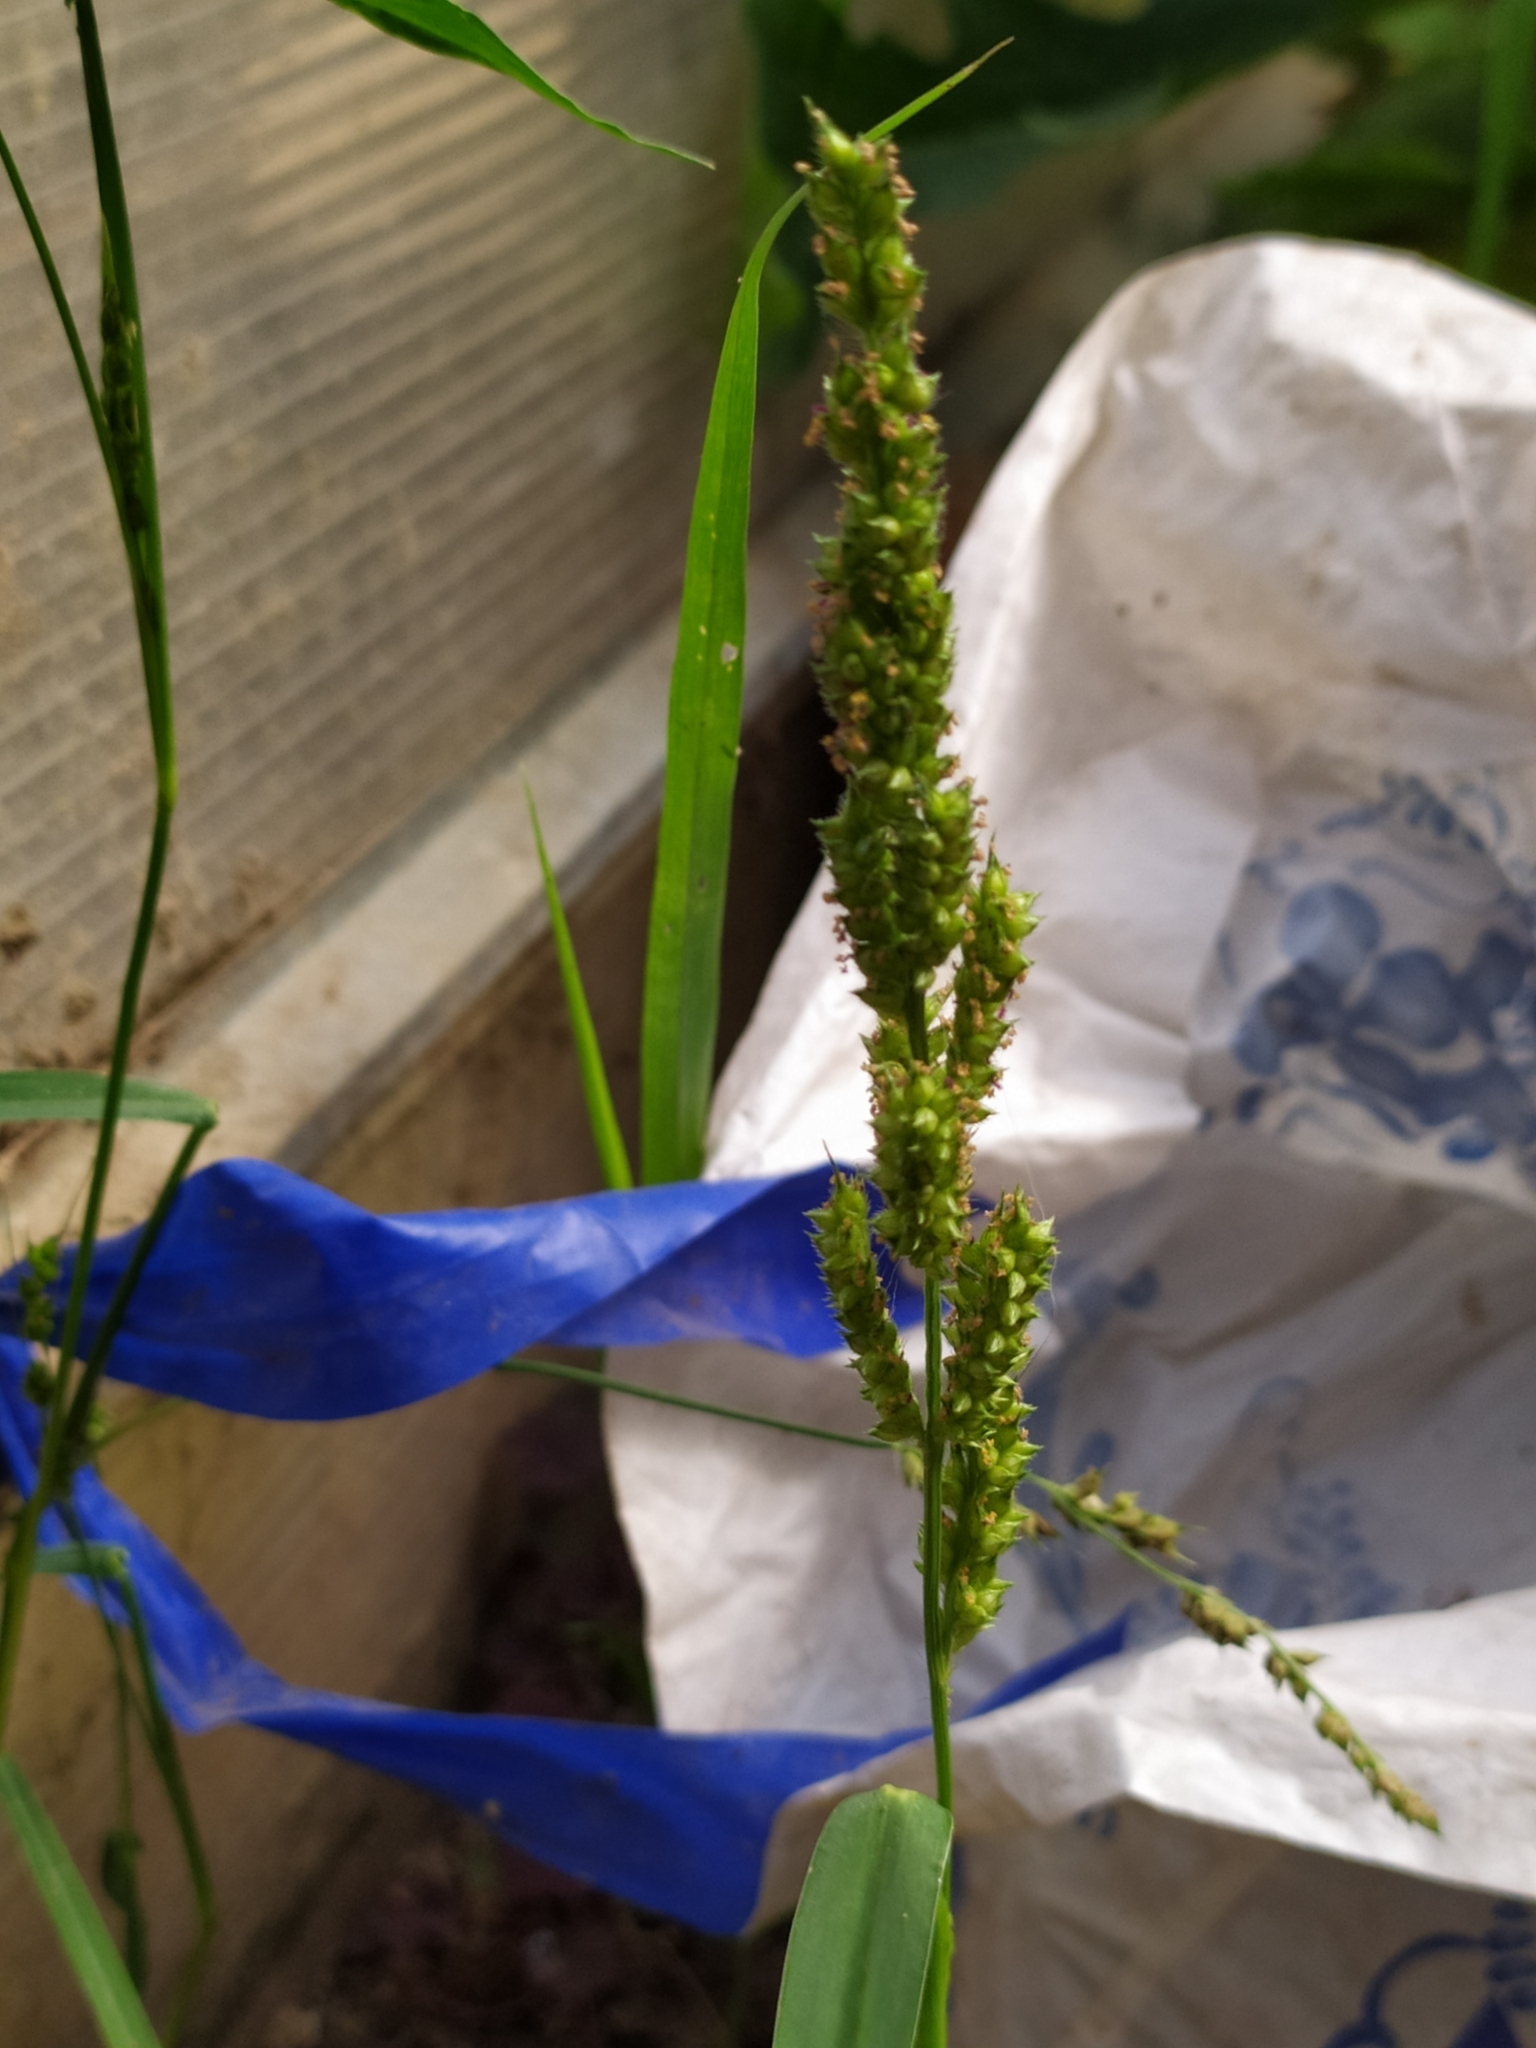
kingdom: Plantae
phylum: Tracheophyta
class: Liliopsida
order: Poales
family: Poaceae
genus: Echinochloa
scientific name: Echinochloa crus-galli
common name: Cockspur
